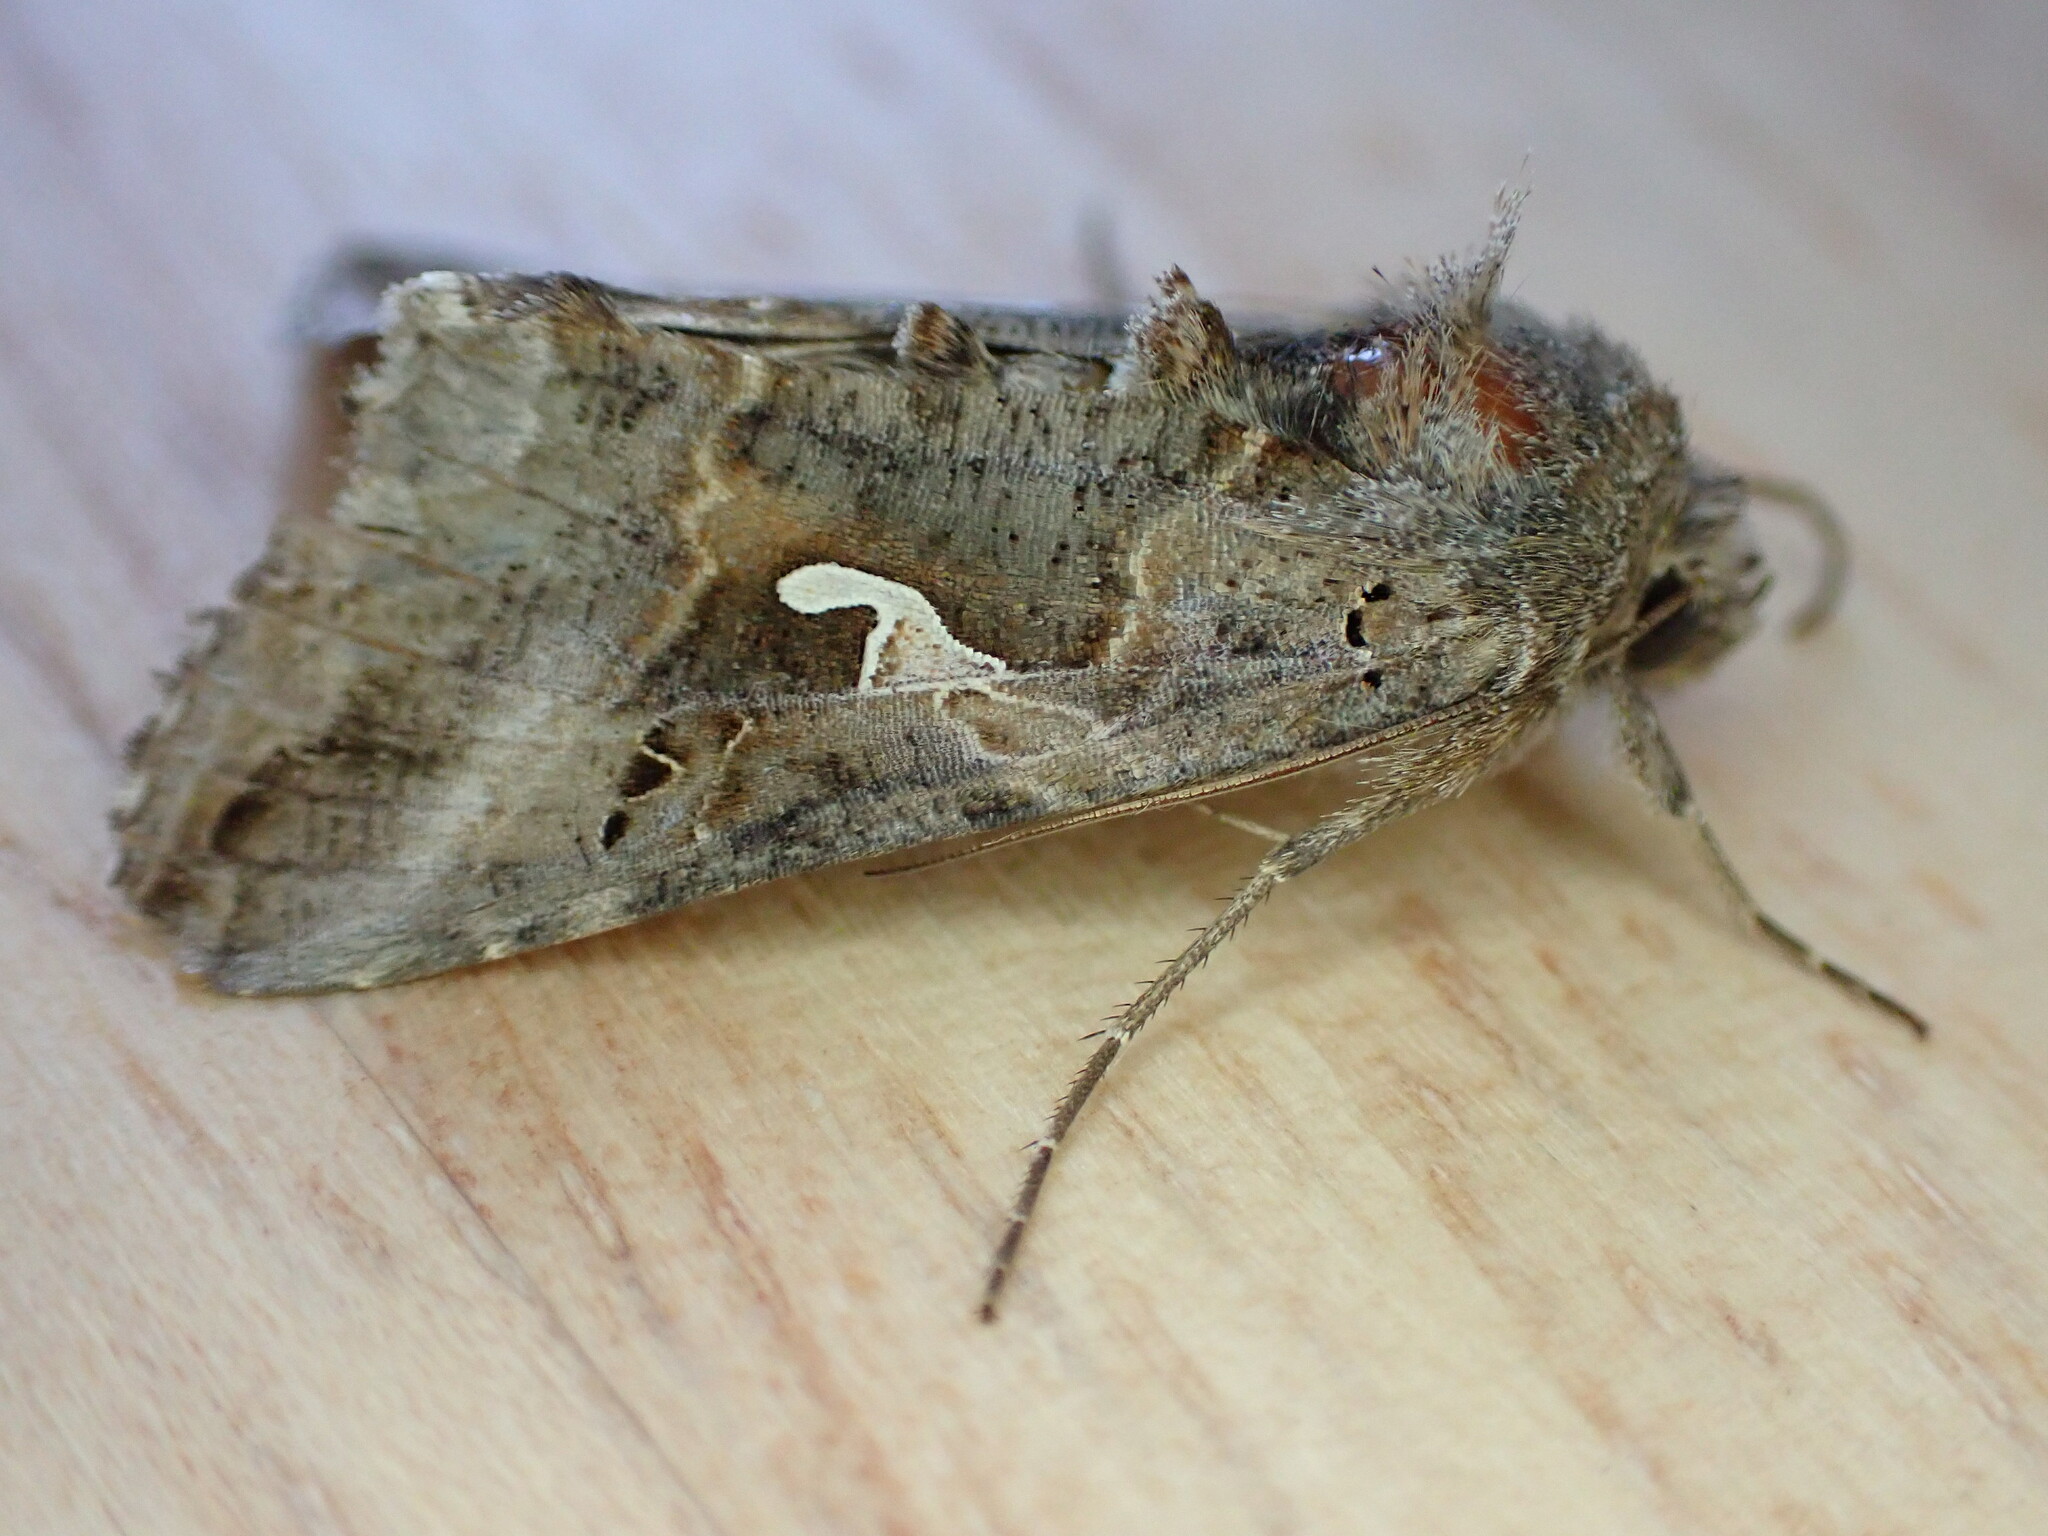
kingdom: Animalia
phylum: Arthropoda
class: Insecta
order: Lepidoptera
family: Noctuidae
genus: Autographa
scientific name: Autographa gamma
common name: Silver y
